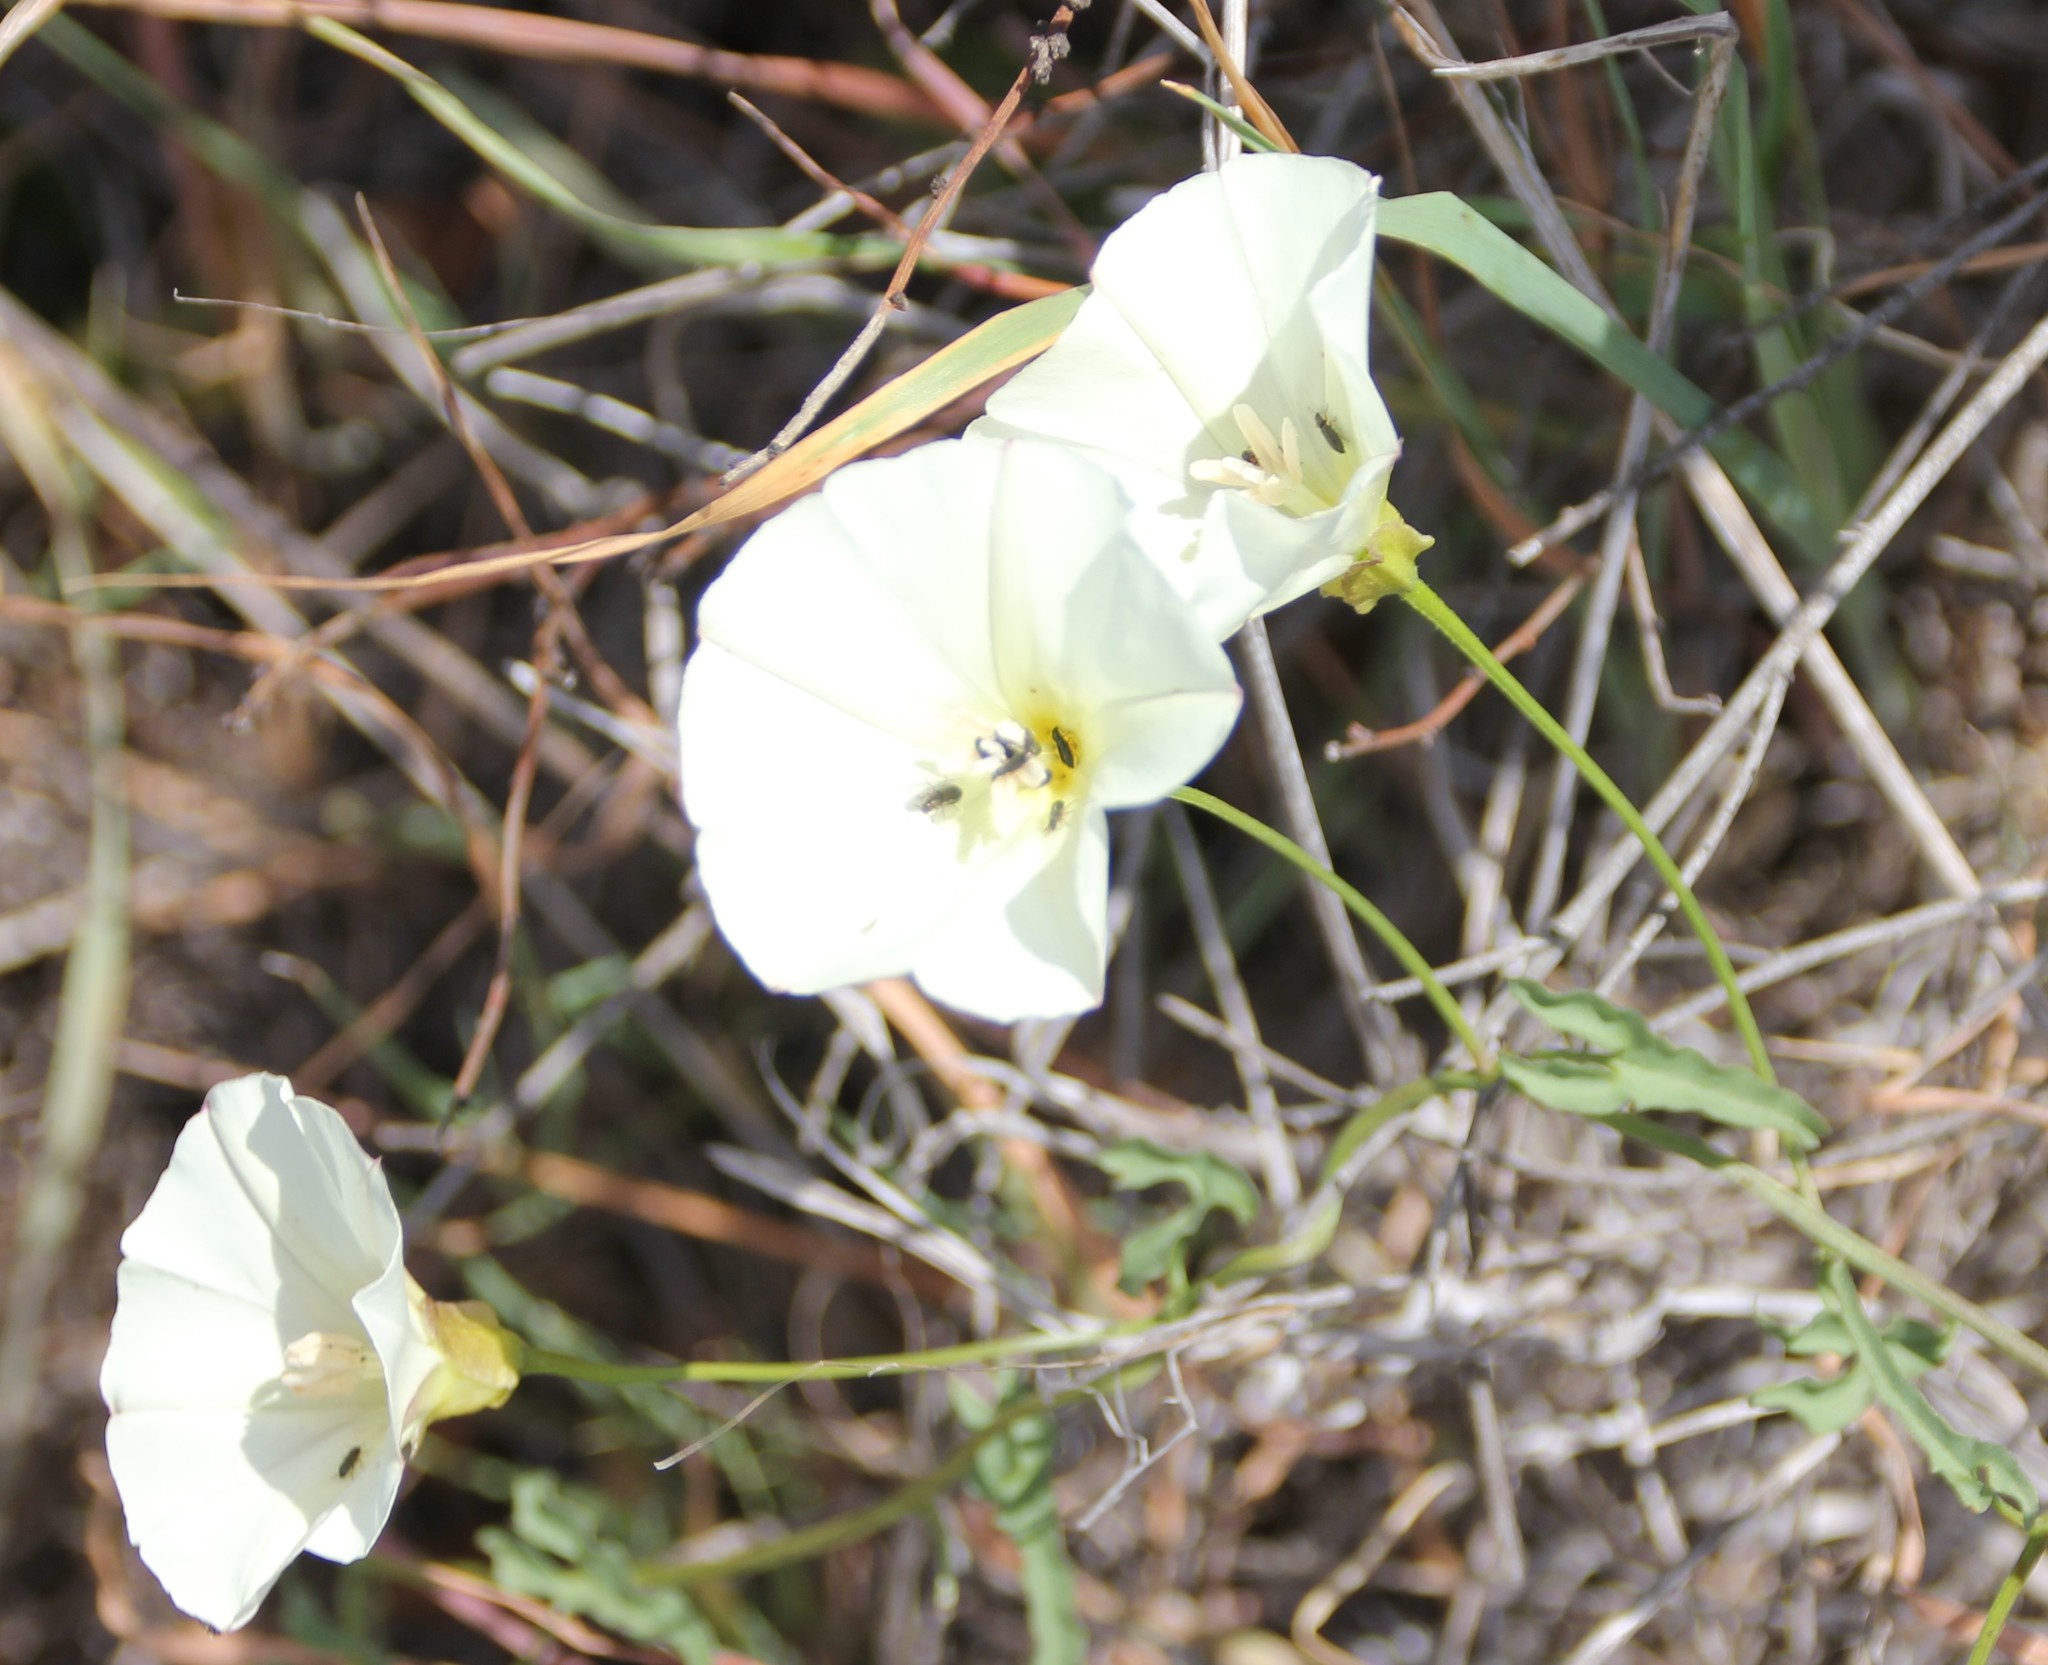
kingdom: Plantae
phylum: Tracheophyta
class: Magnoliopsida
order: Solanales
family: Convolvulaceae
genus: Calystegia
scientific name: Calystegia macrostegia
